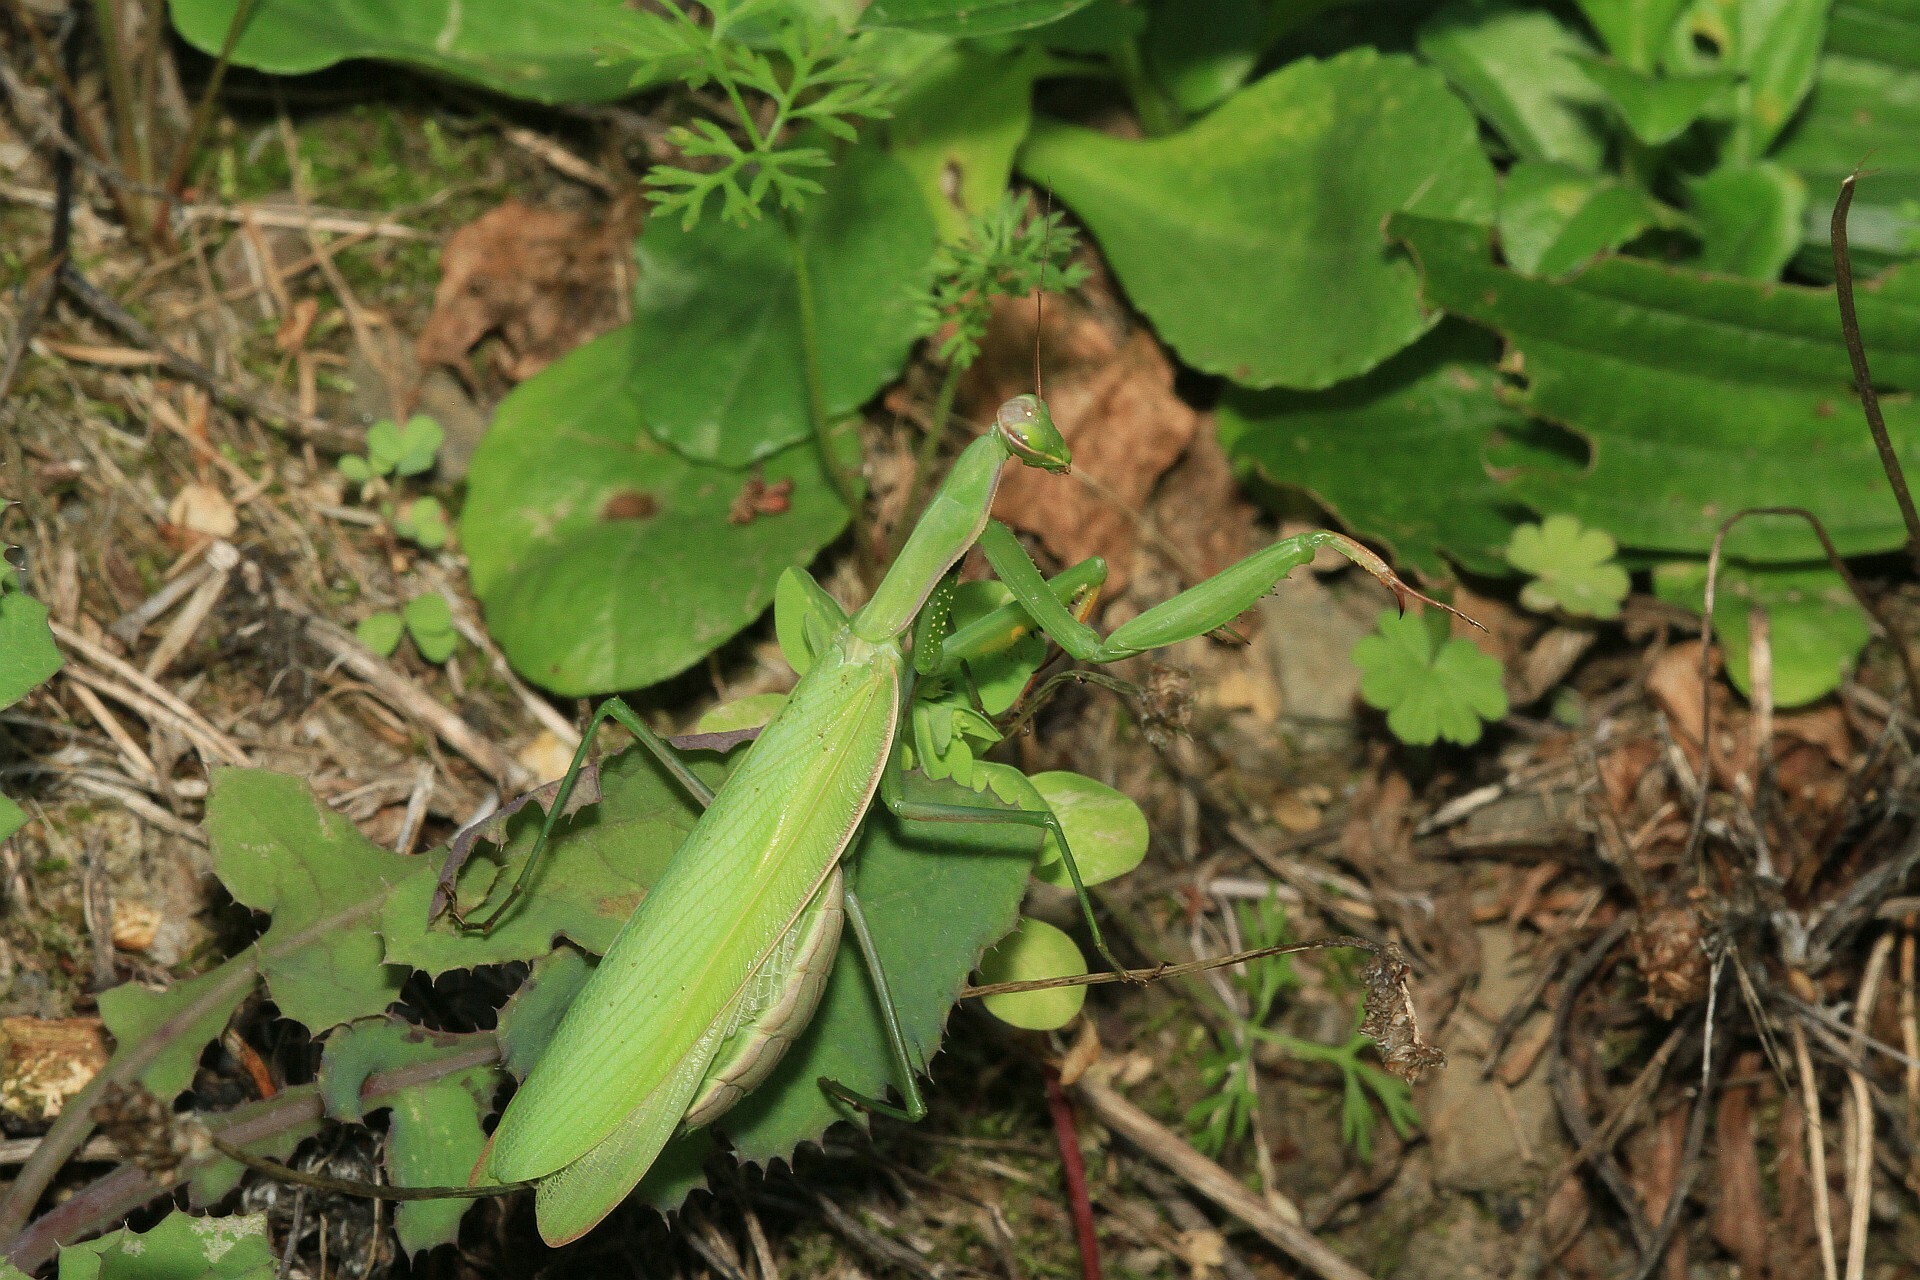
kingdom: Animalia
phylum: Arthropoda
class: Insecta
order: Mantodea
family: Mantidae
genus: Mantis
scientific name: Mantis religiosa
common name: Praying mantis
